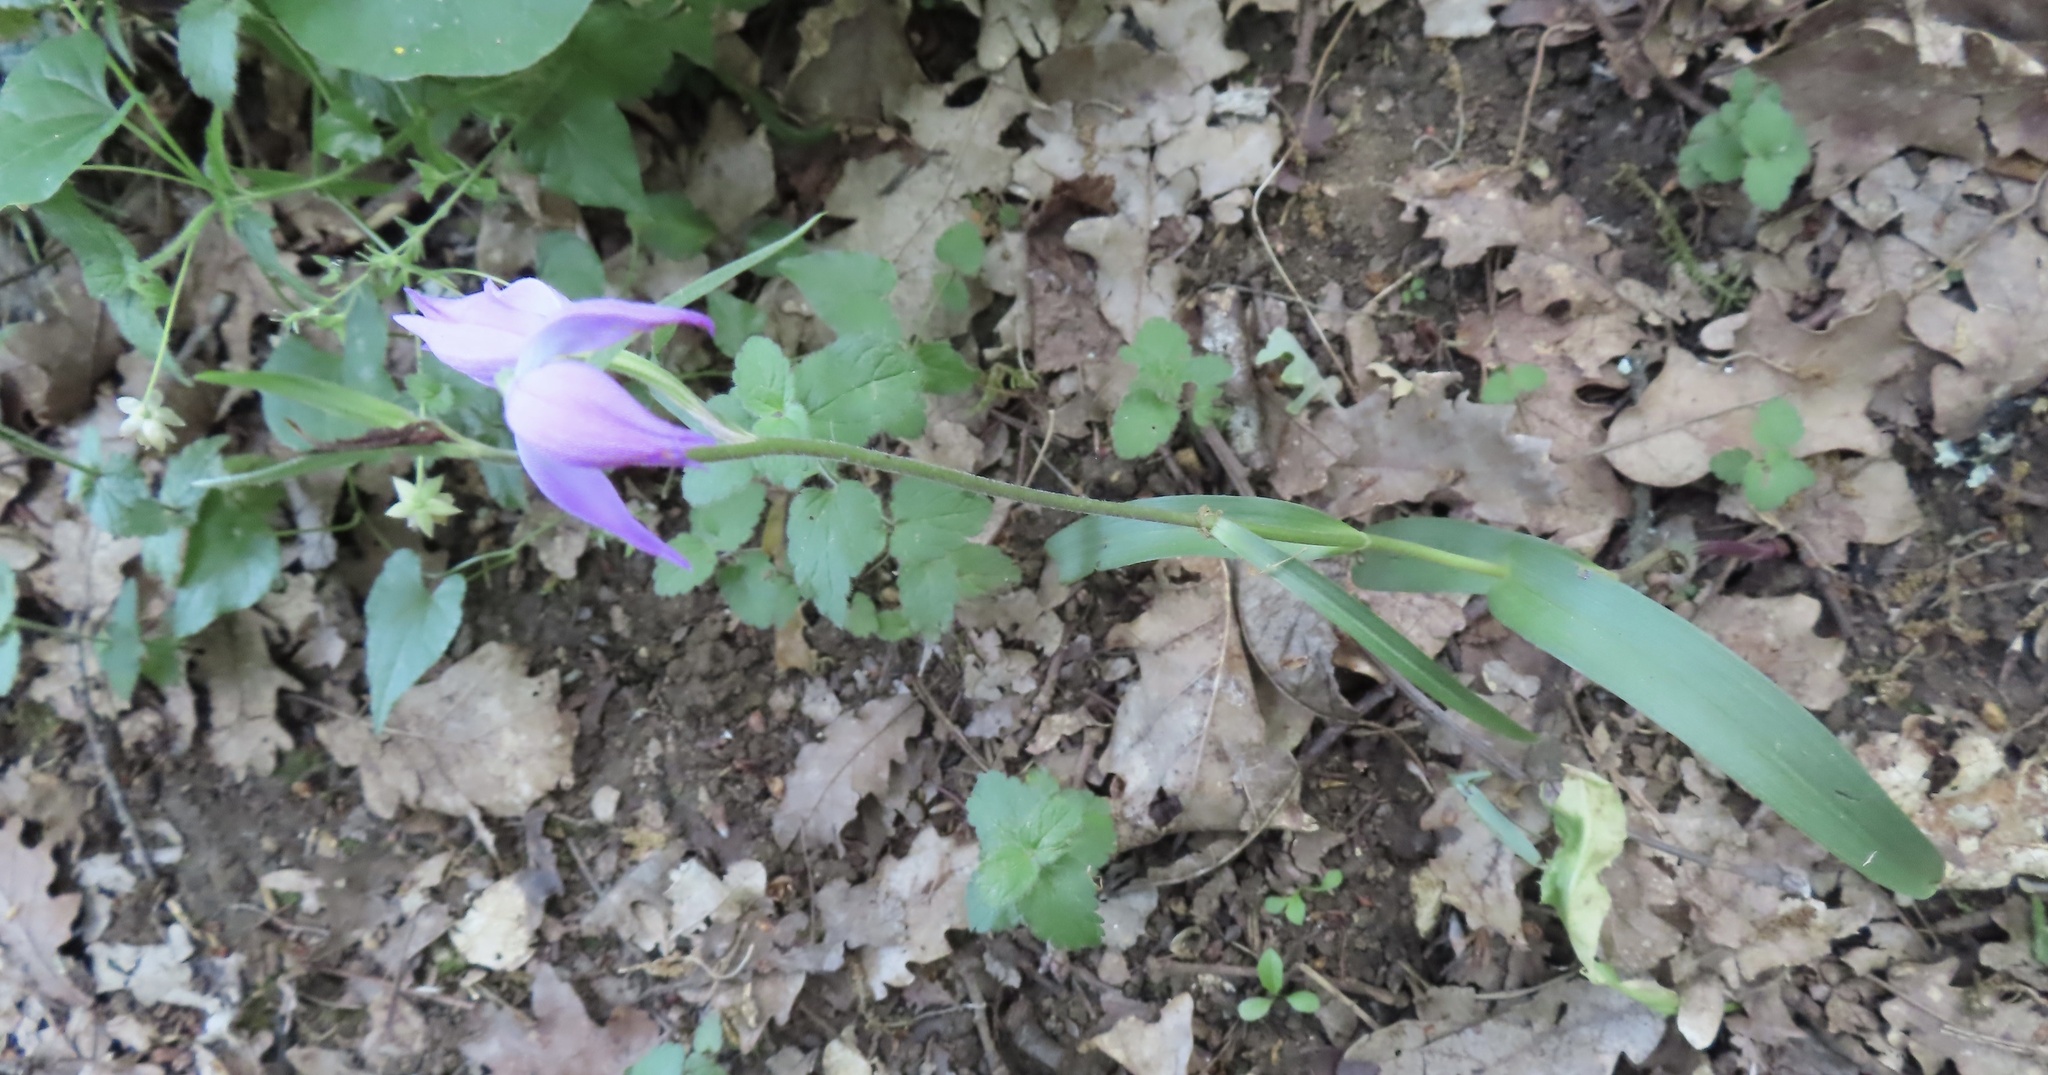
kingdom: Plantae
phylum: Tracheophyta
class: Liliopsida
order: Asparagales
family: Orchidaceae
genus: Cephalanthera
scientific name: Cephalanthera rubra
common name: Red helleborine
